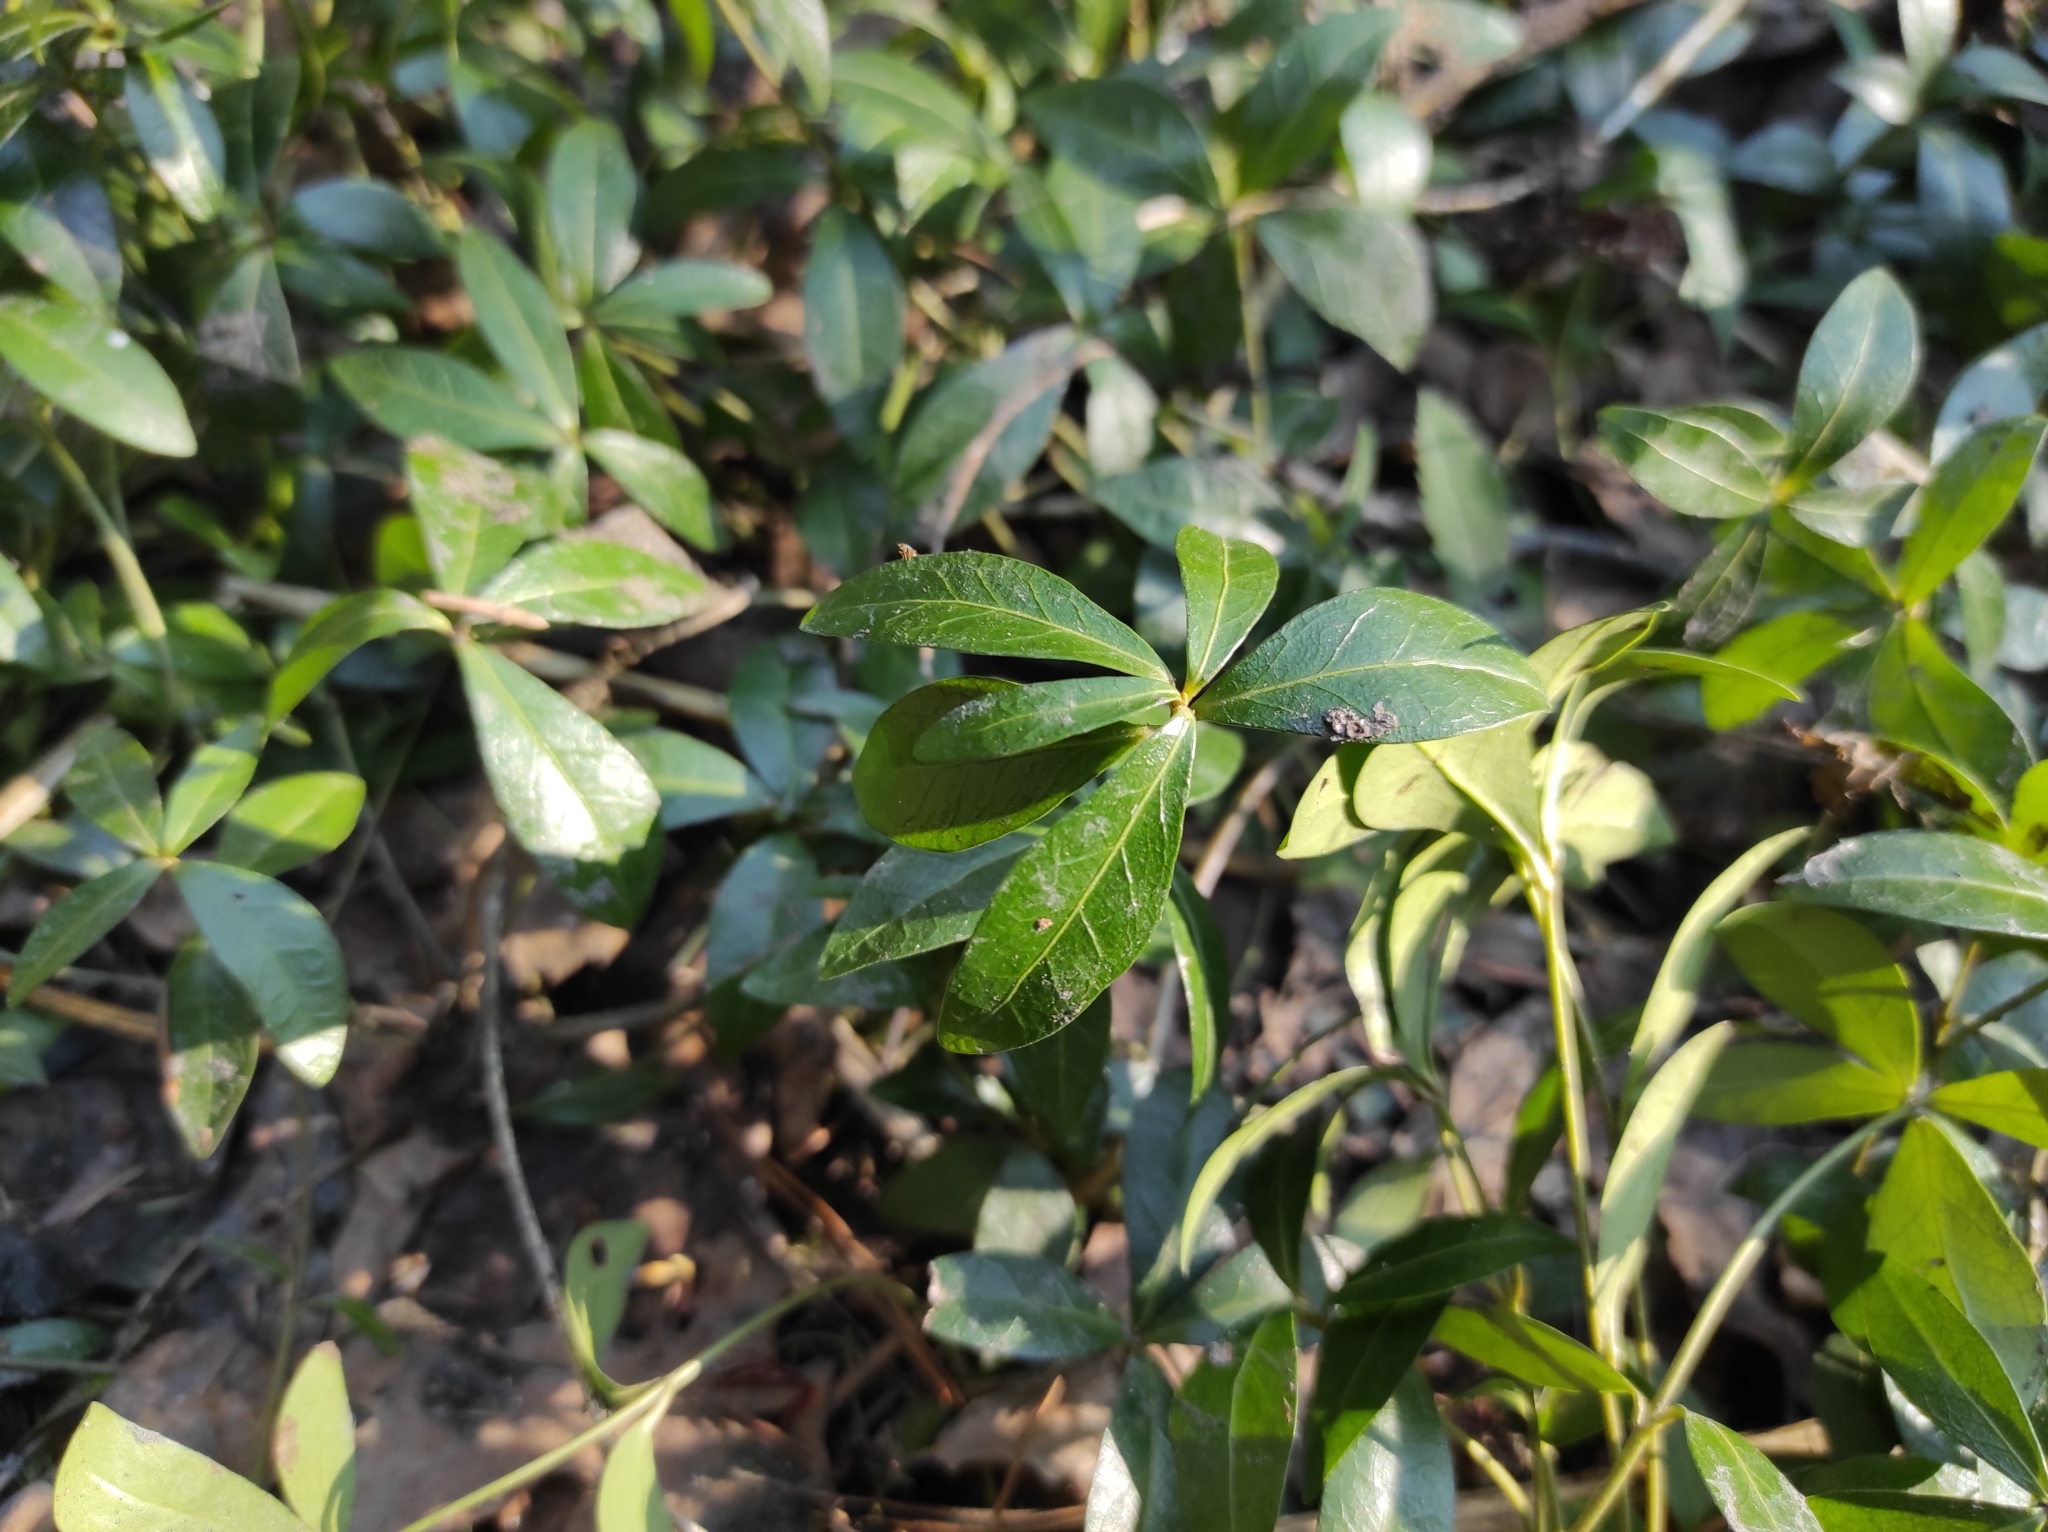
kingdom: Plantae
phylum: Tracheophyta
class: Magnoliopsida
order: Gentianales
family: Apocynaceae
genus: Vinca
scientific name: Vinca minor
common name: Lesser periwinkle
